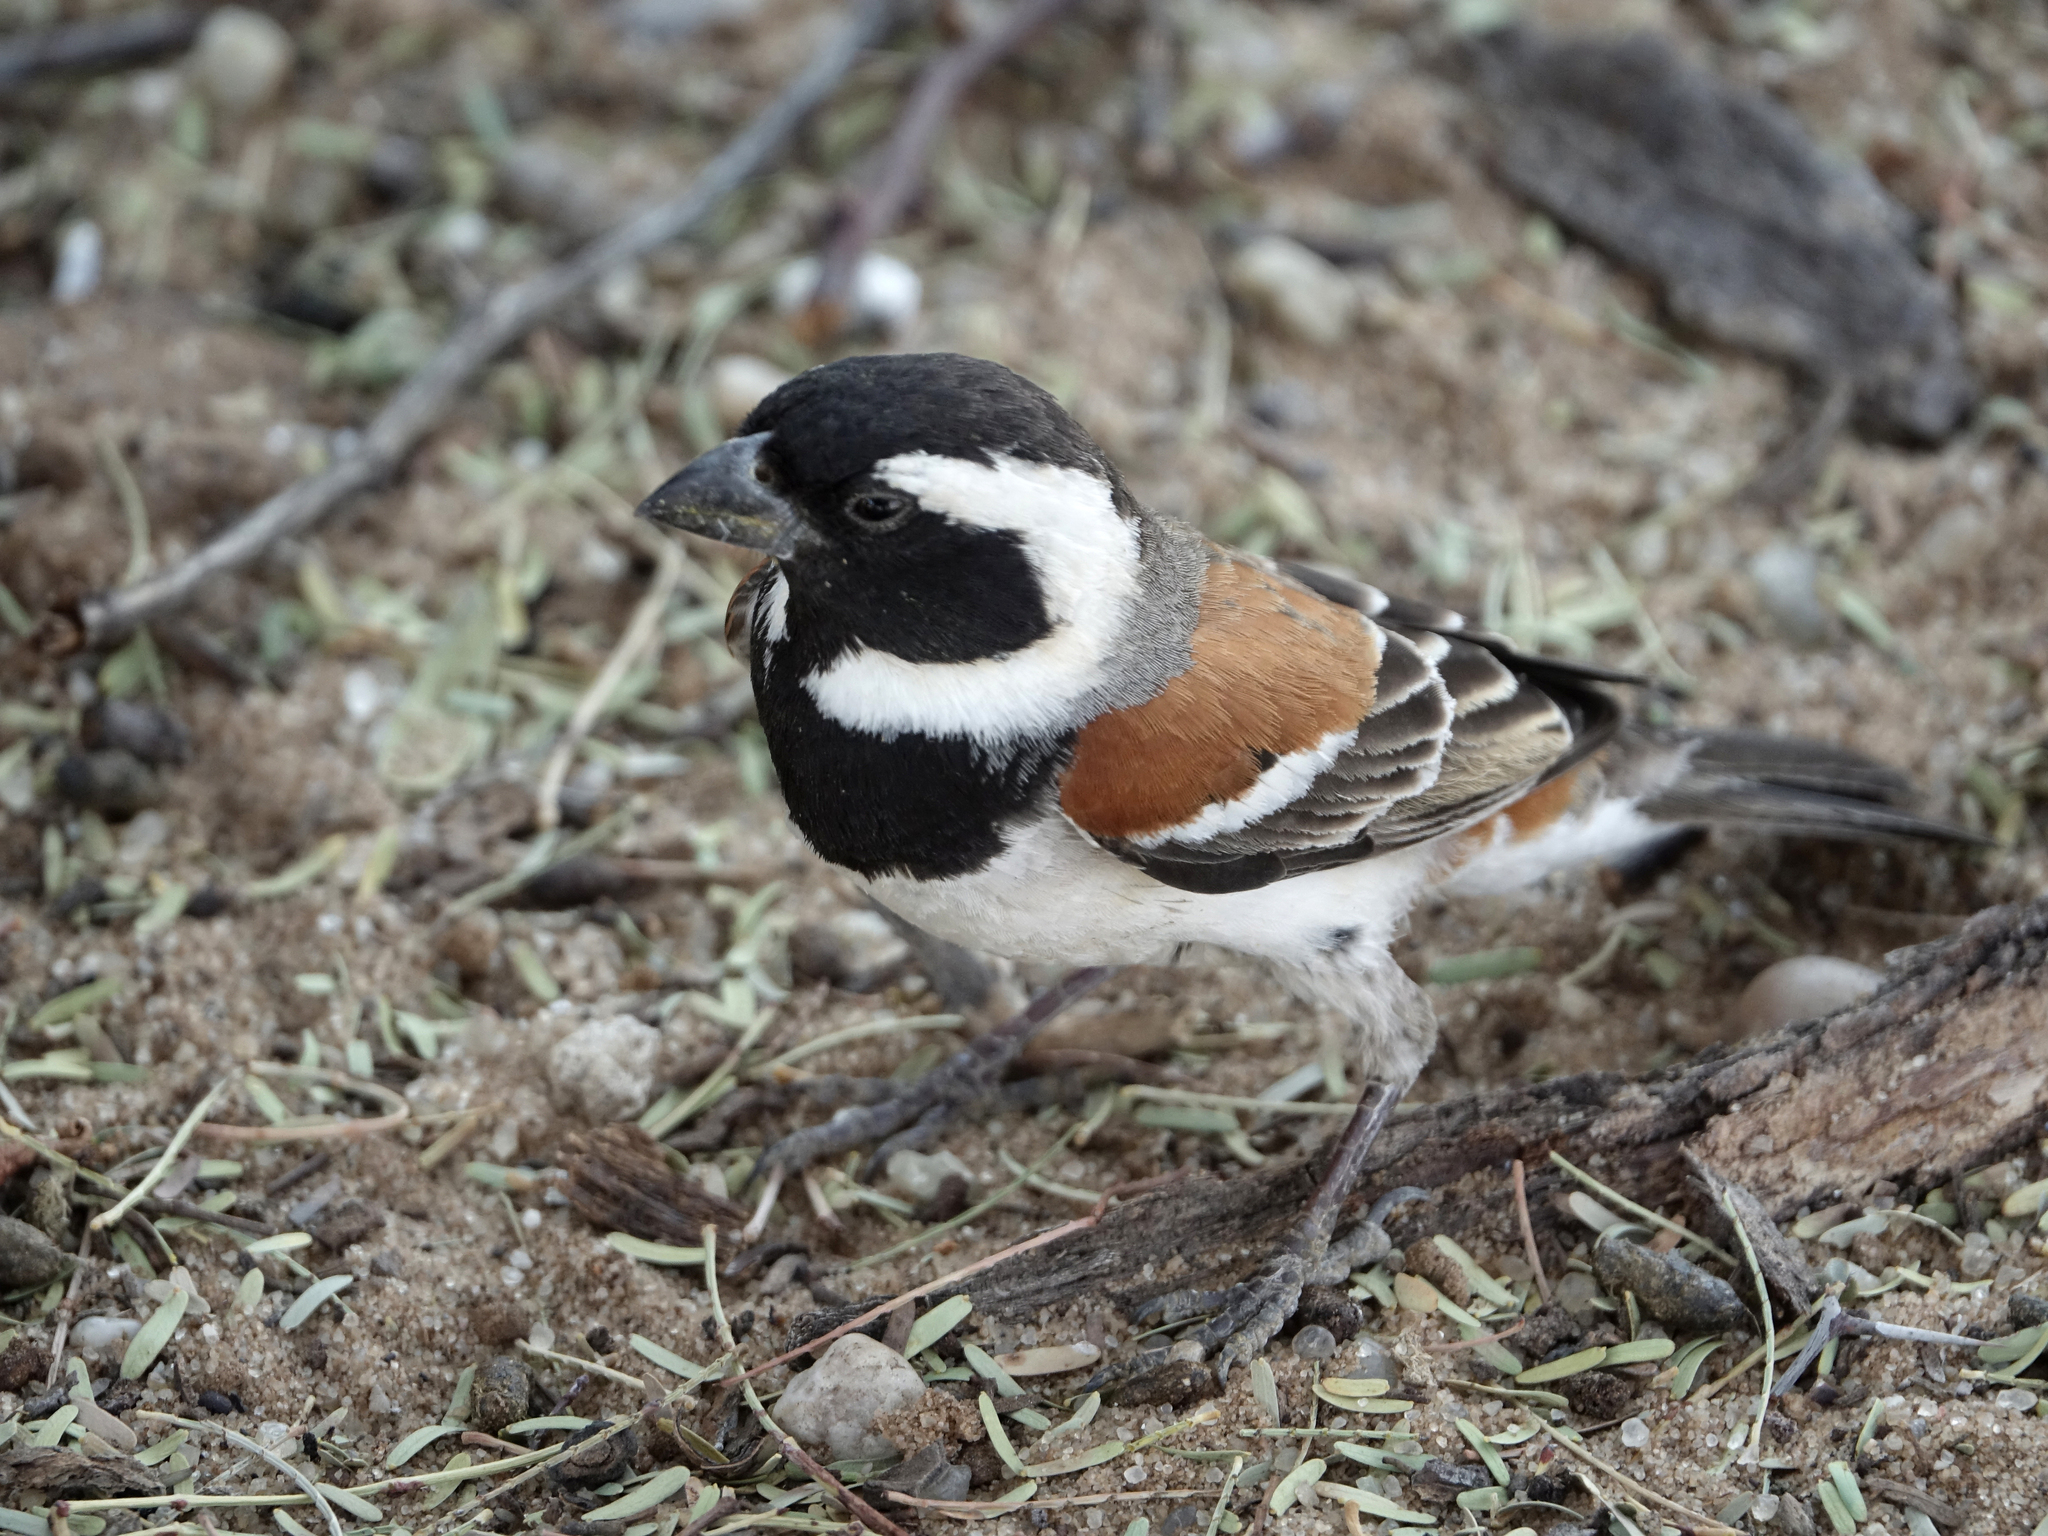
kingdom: Animalia
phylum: Chordata
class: Aves
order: Passeriformes
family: Passeridae
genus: Passer
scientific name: Passer melanurus
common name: Cape sparrow
